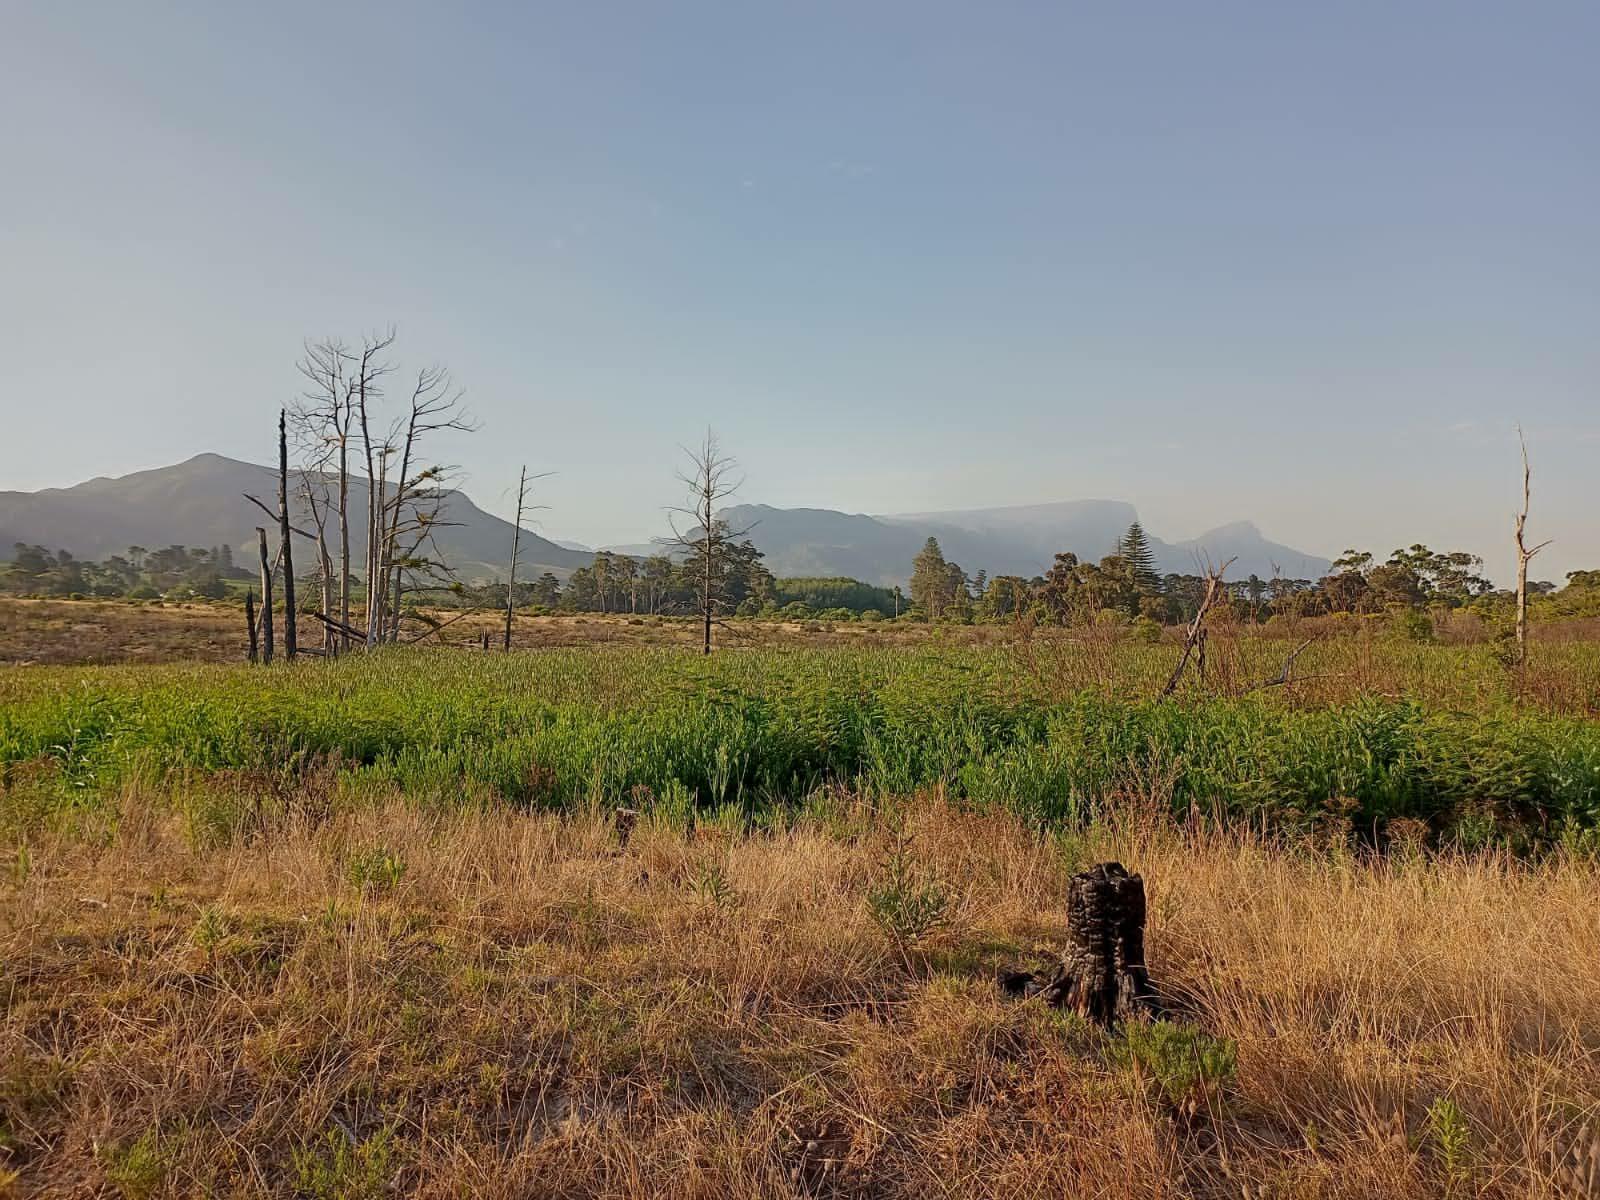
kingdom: Plantae
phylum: Tracheophyta
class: Pinopsida
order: Pinales
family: Cupressaceae
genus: Taxodium
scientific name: Taxodium distichum
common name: Bald cypress
